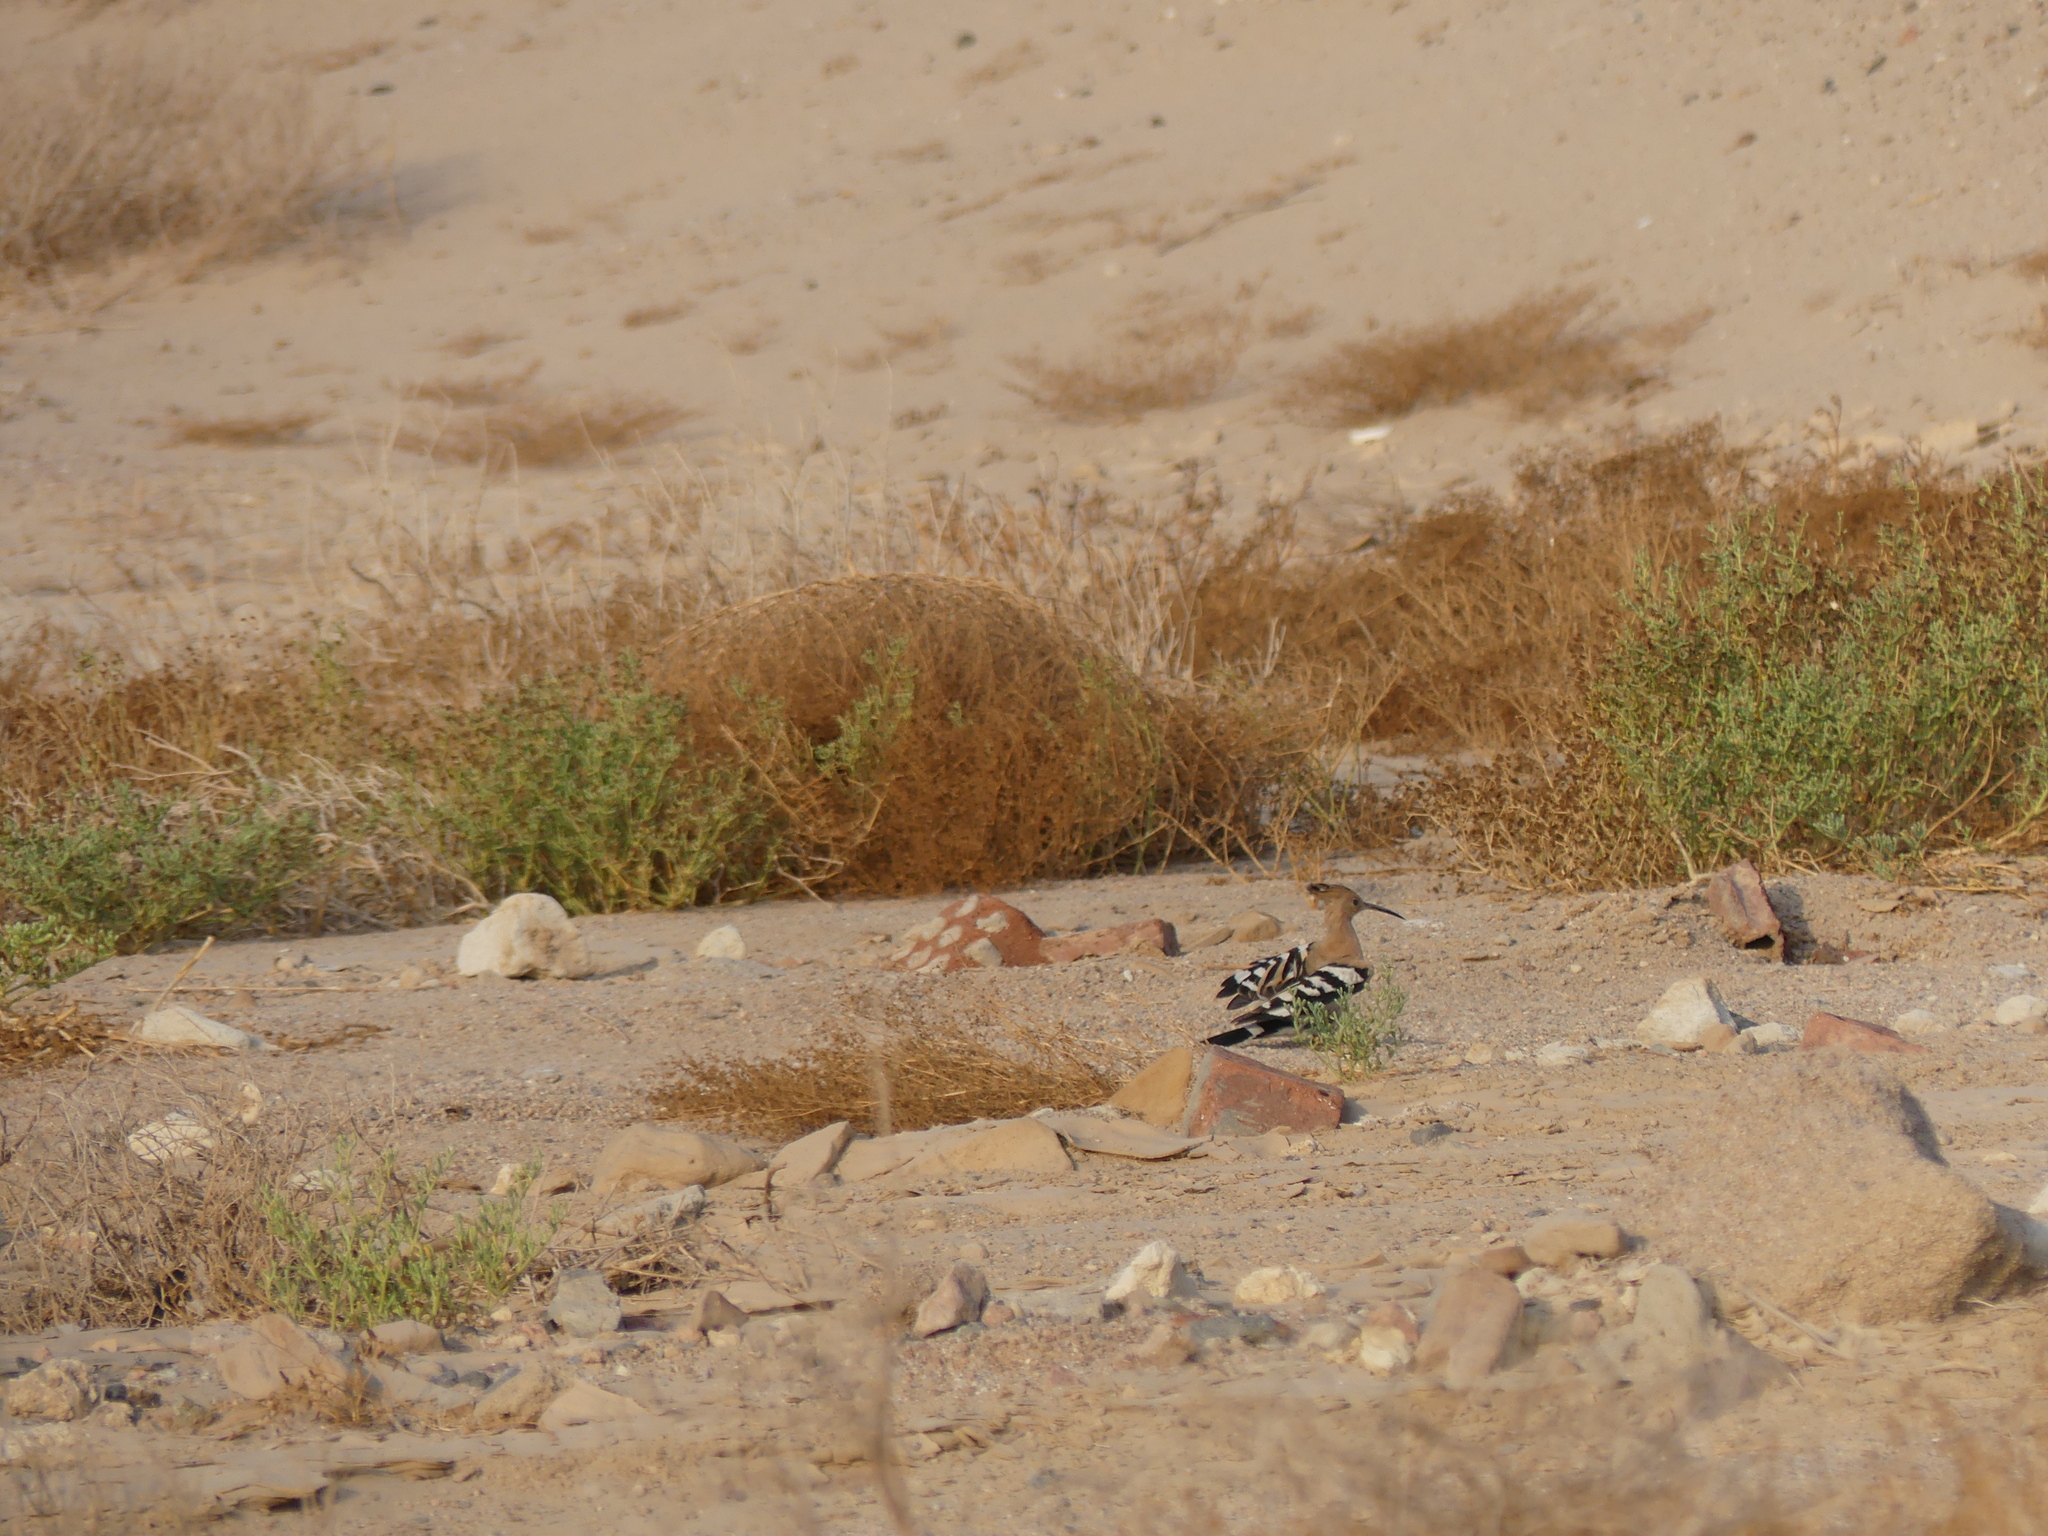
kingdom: Animalia
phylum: Chordata
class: Aves
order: Bucerotiformes
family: Upupidae
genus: Upupa
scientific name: Upupa epops
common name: Eurasian hoopoe
